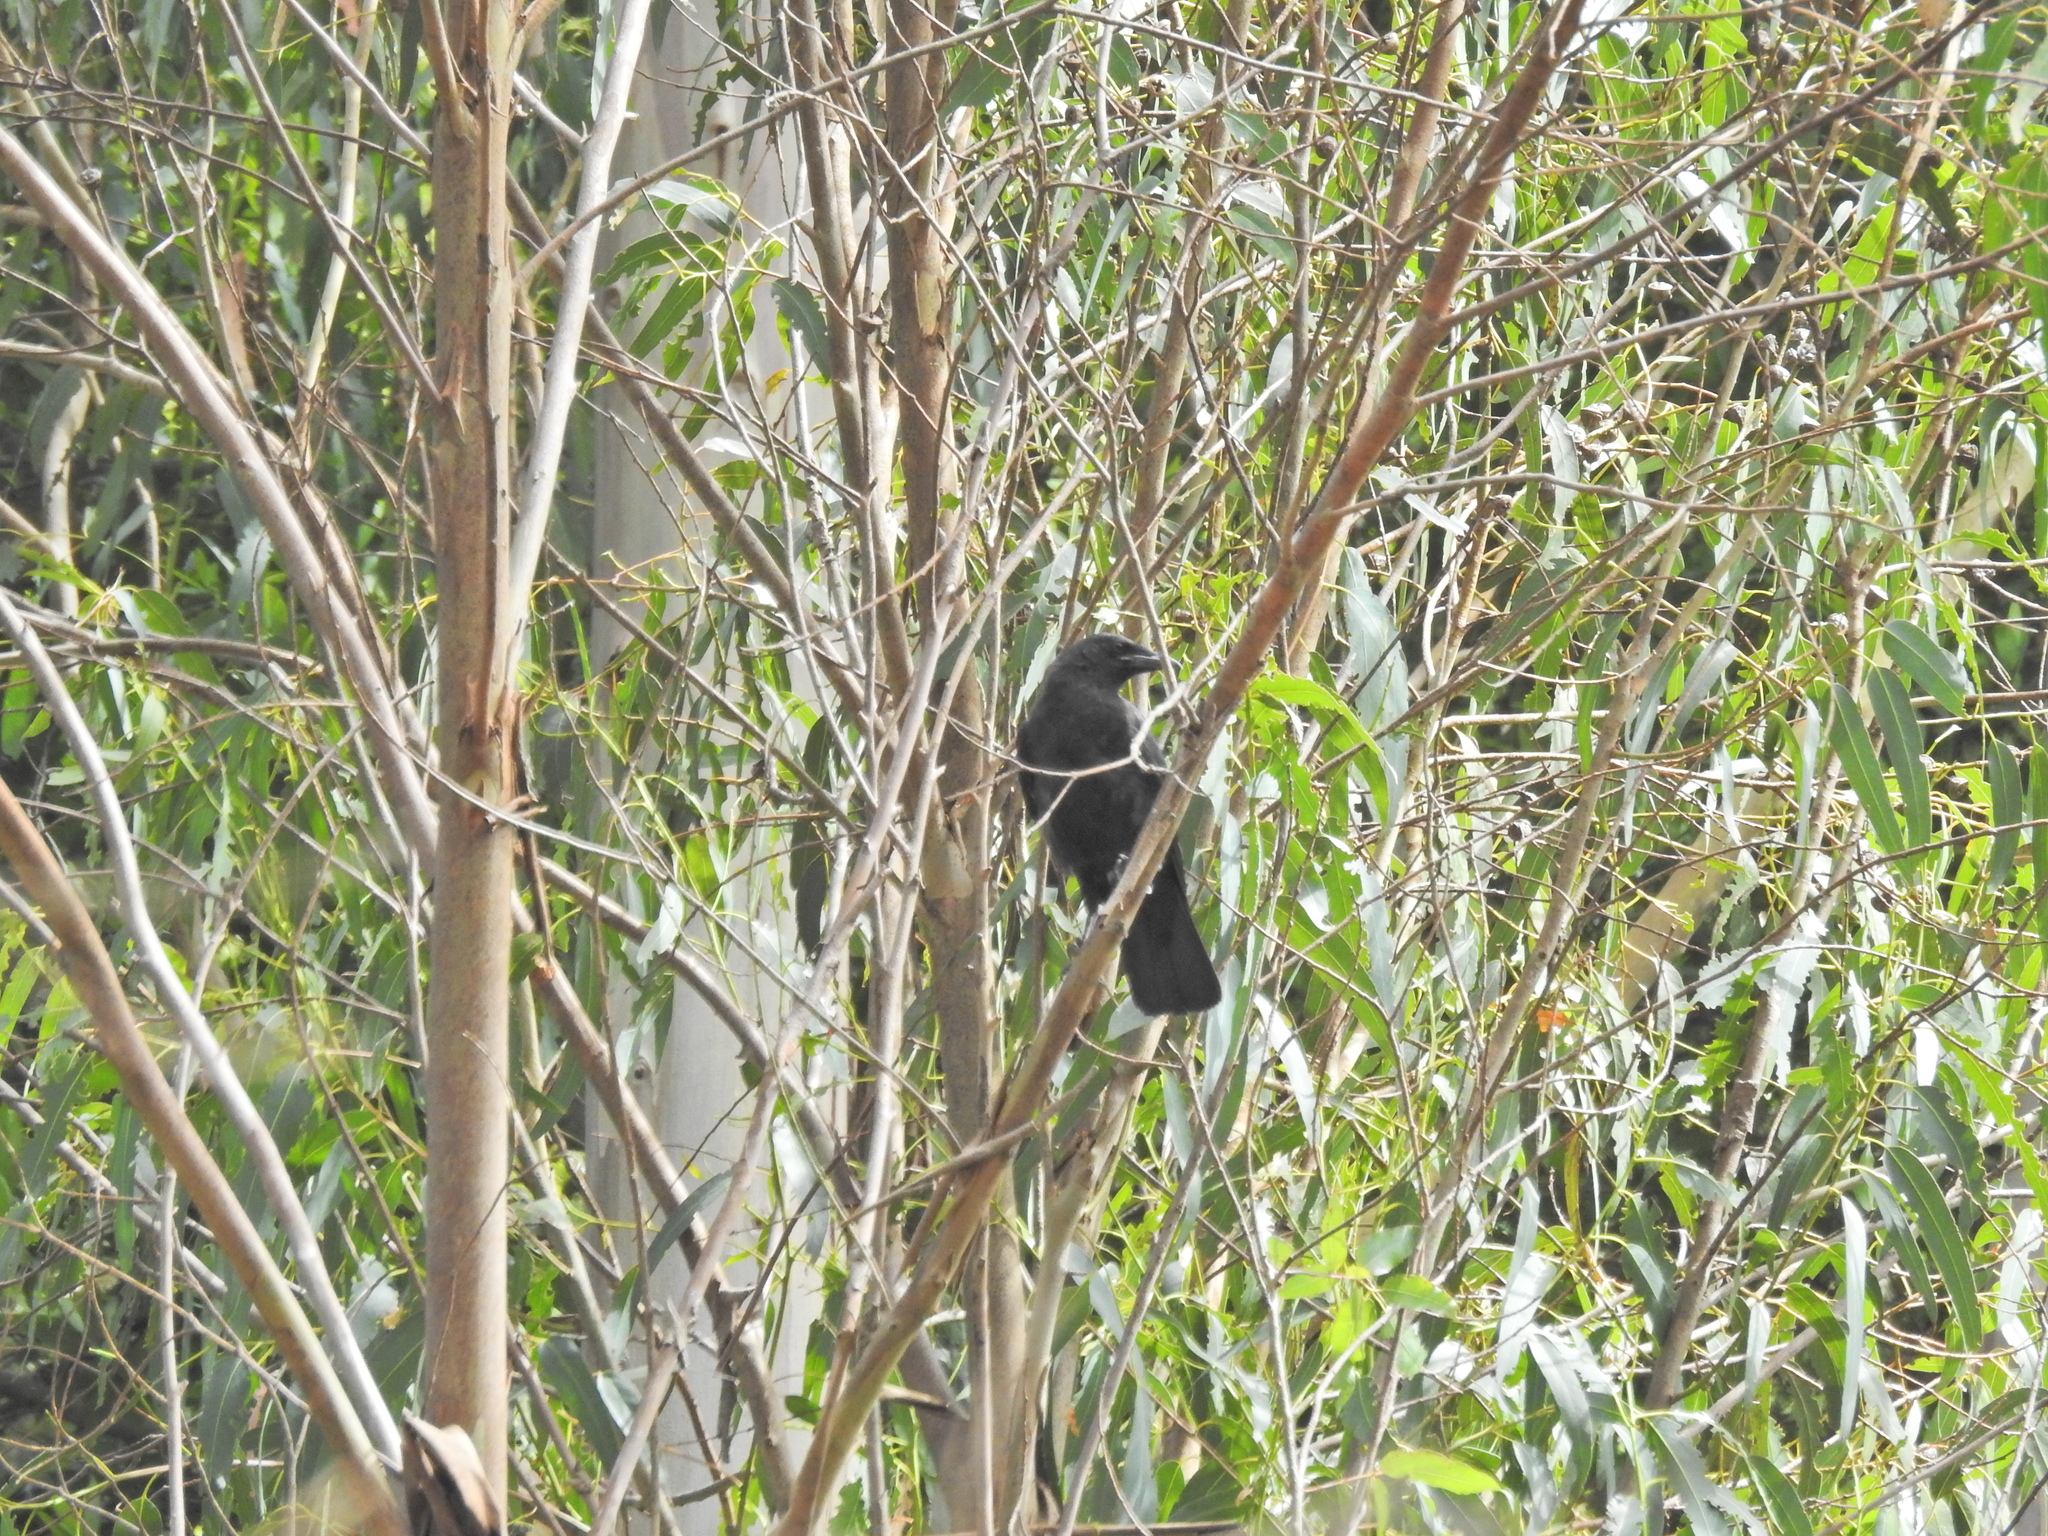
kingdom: Animalia
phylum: Chordata
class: Aves
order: Passeriformes
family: Corvidae
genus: Corvus
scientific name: Corvus brachyrhynchos
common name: American crow
